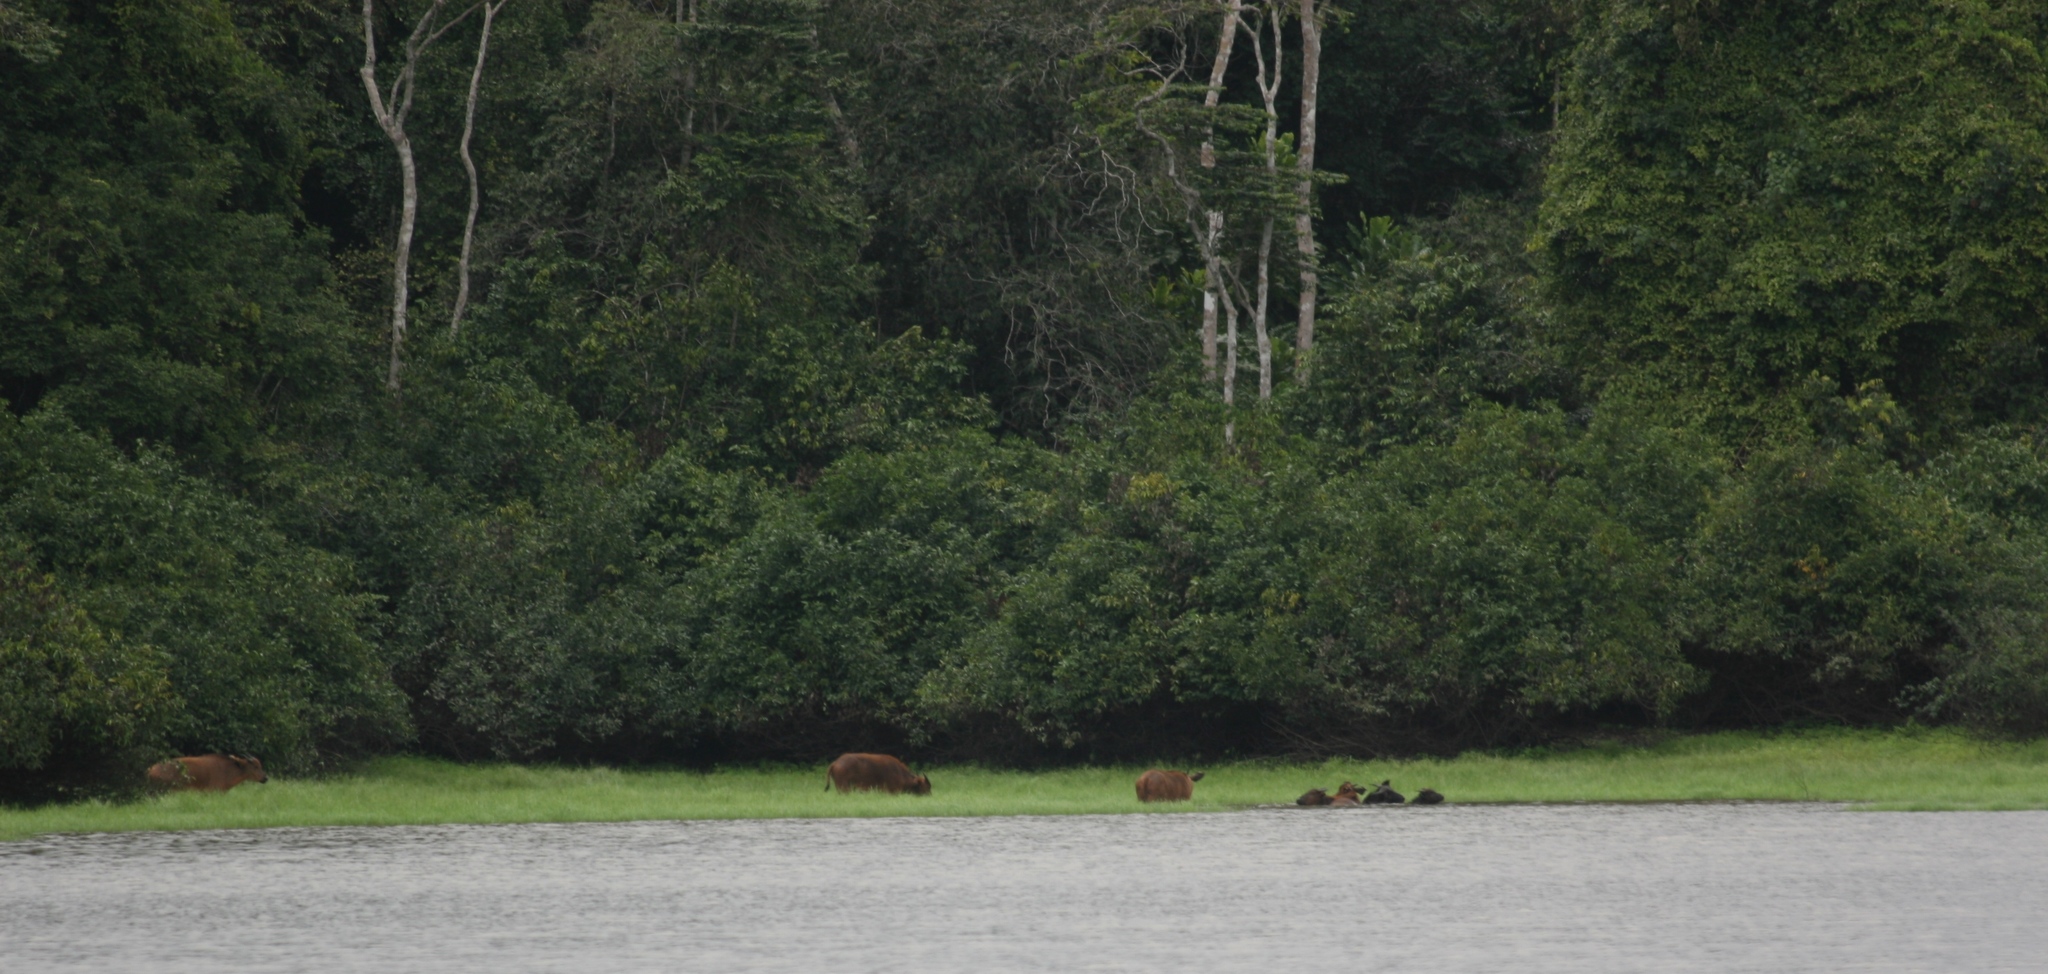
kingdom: Animalia
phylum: Chordata
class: Mammalia
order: Artiodactyla
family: Bovidae
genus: Syncerus
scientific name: Syncerus caffer
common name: African buffalo
